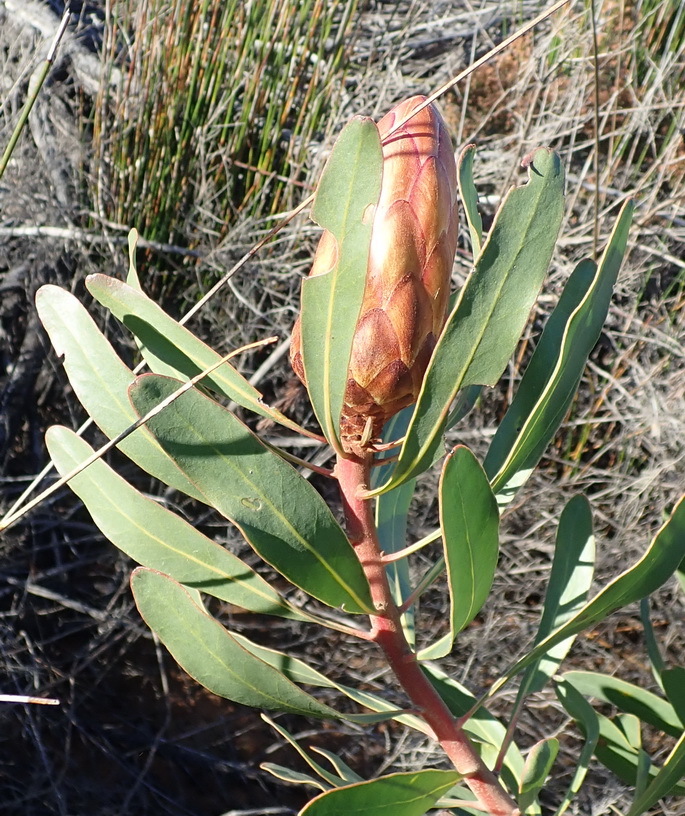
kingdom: Plantae
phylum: Tracheophyta
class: Magnoliopsida
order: Proteales
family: Proteaceae
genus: Protea
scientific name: Protea susannae
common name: Foetid-leaf sugarbush
